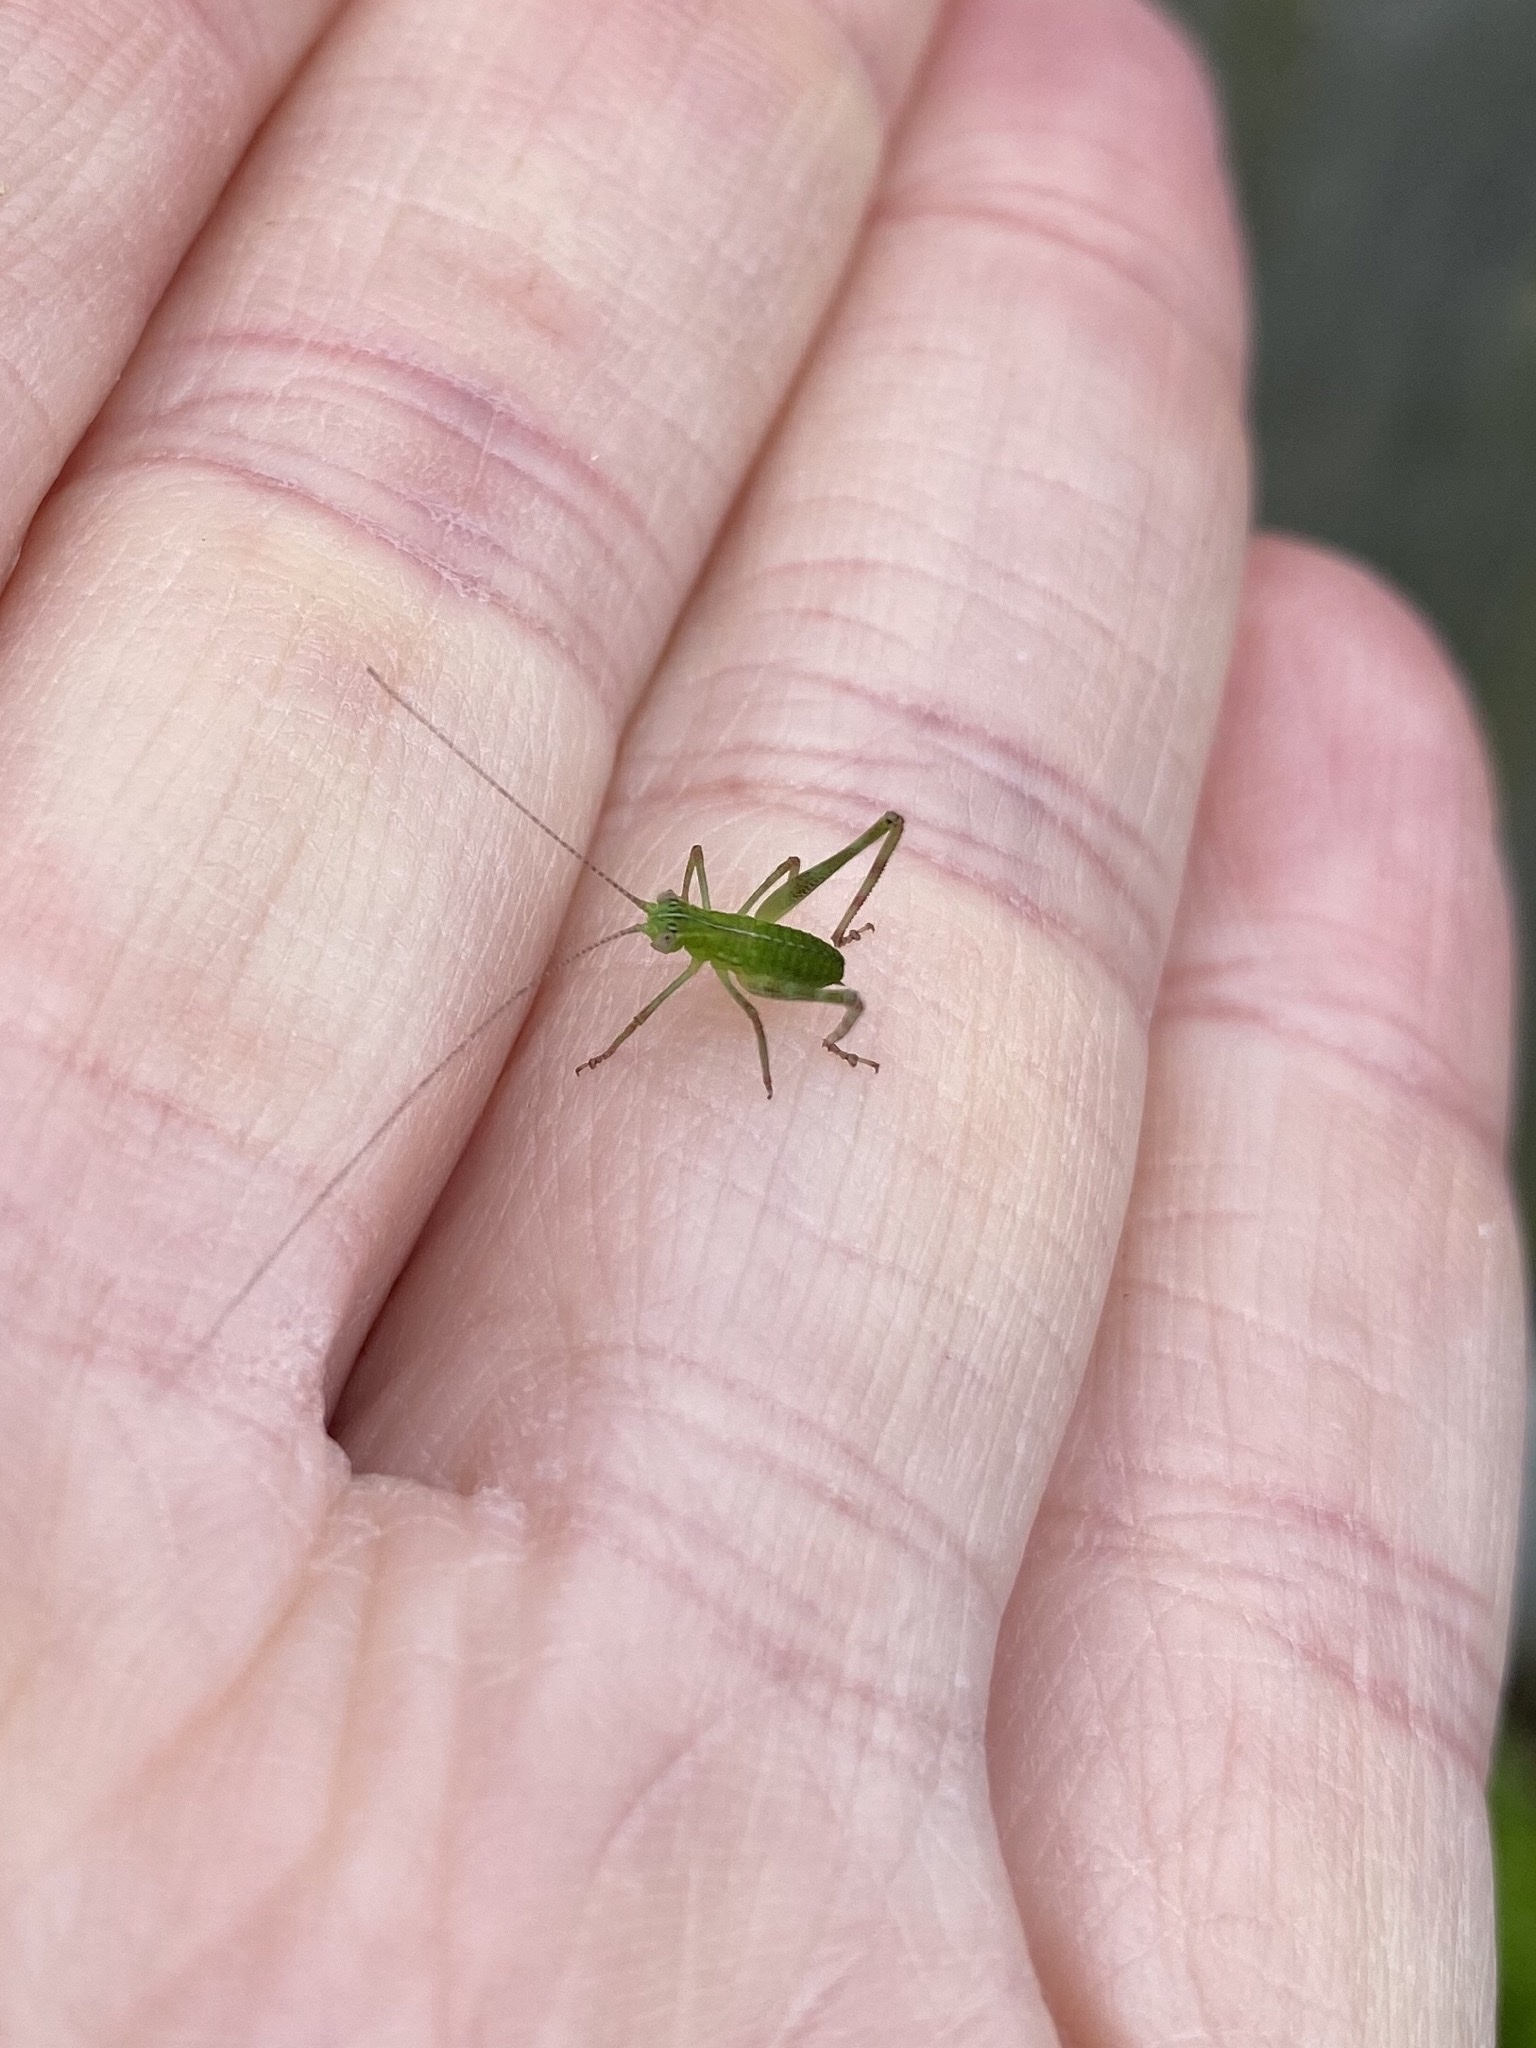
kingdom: Animalia
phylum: Arthropoda
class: Insecta
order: Orthoptera
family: Tettigoniidae
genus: Caedicia
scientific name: Caedicia simplex
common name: Common garden katydid
